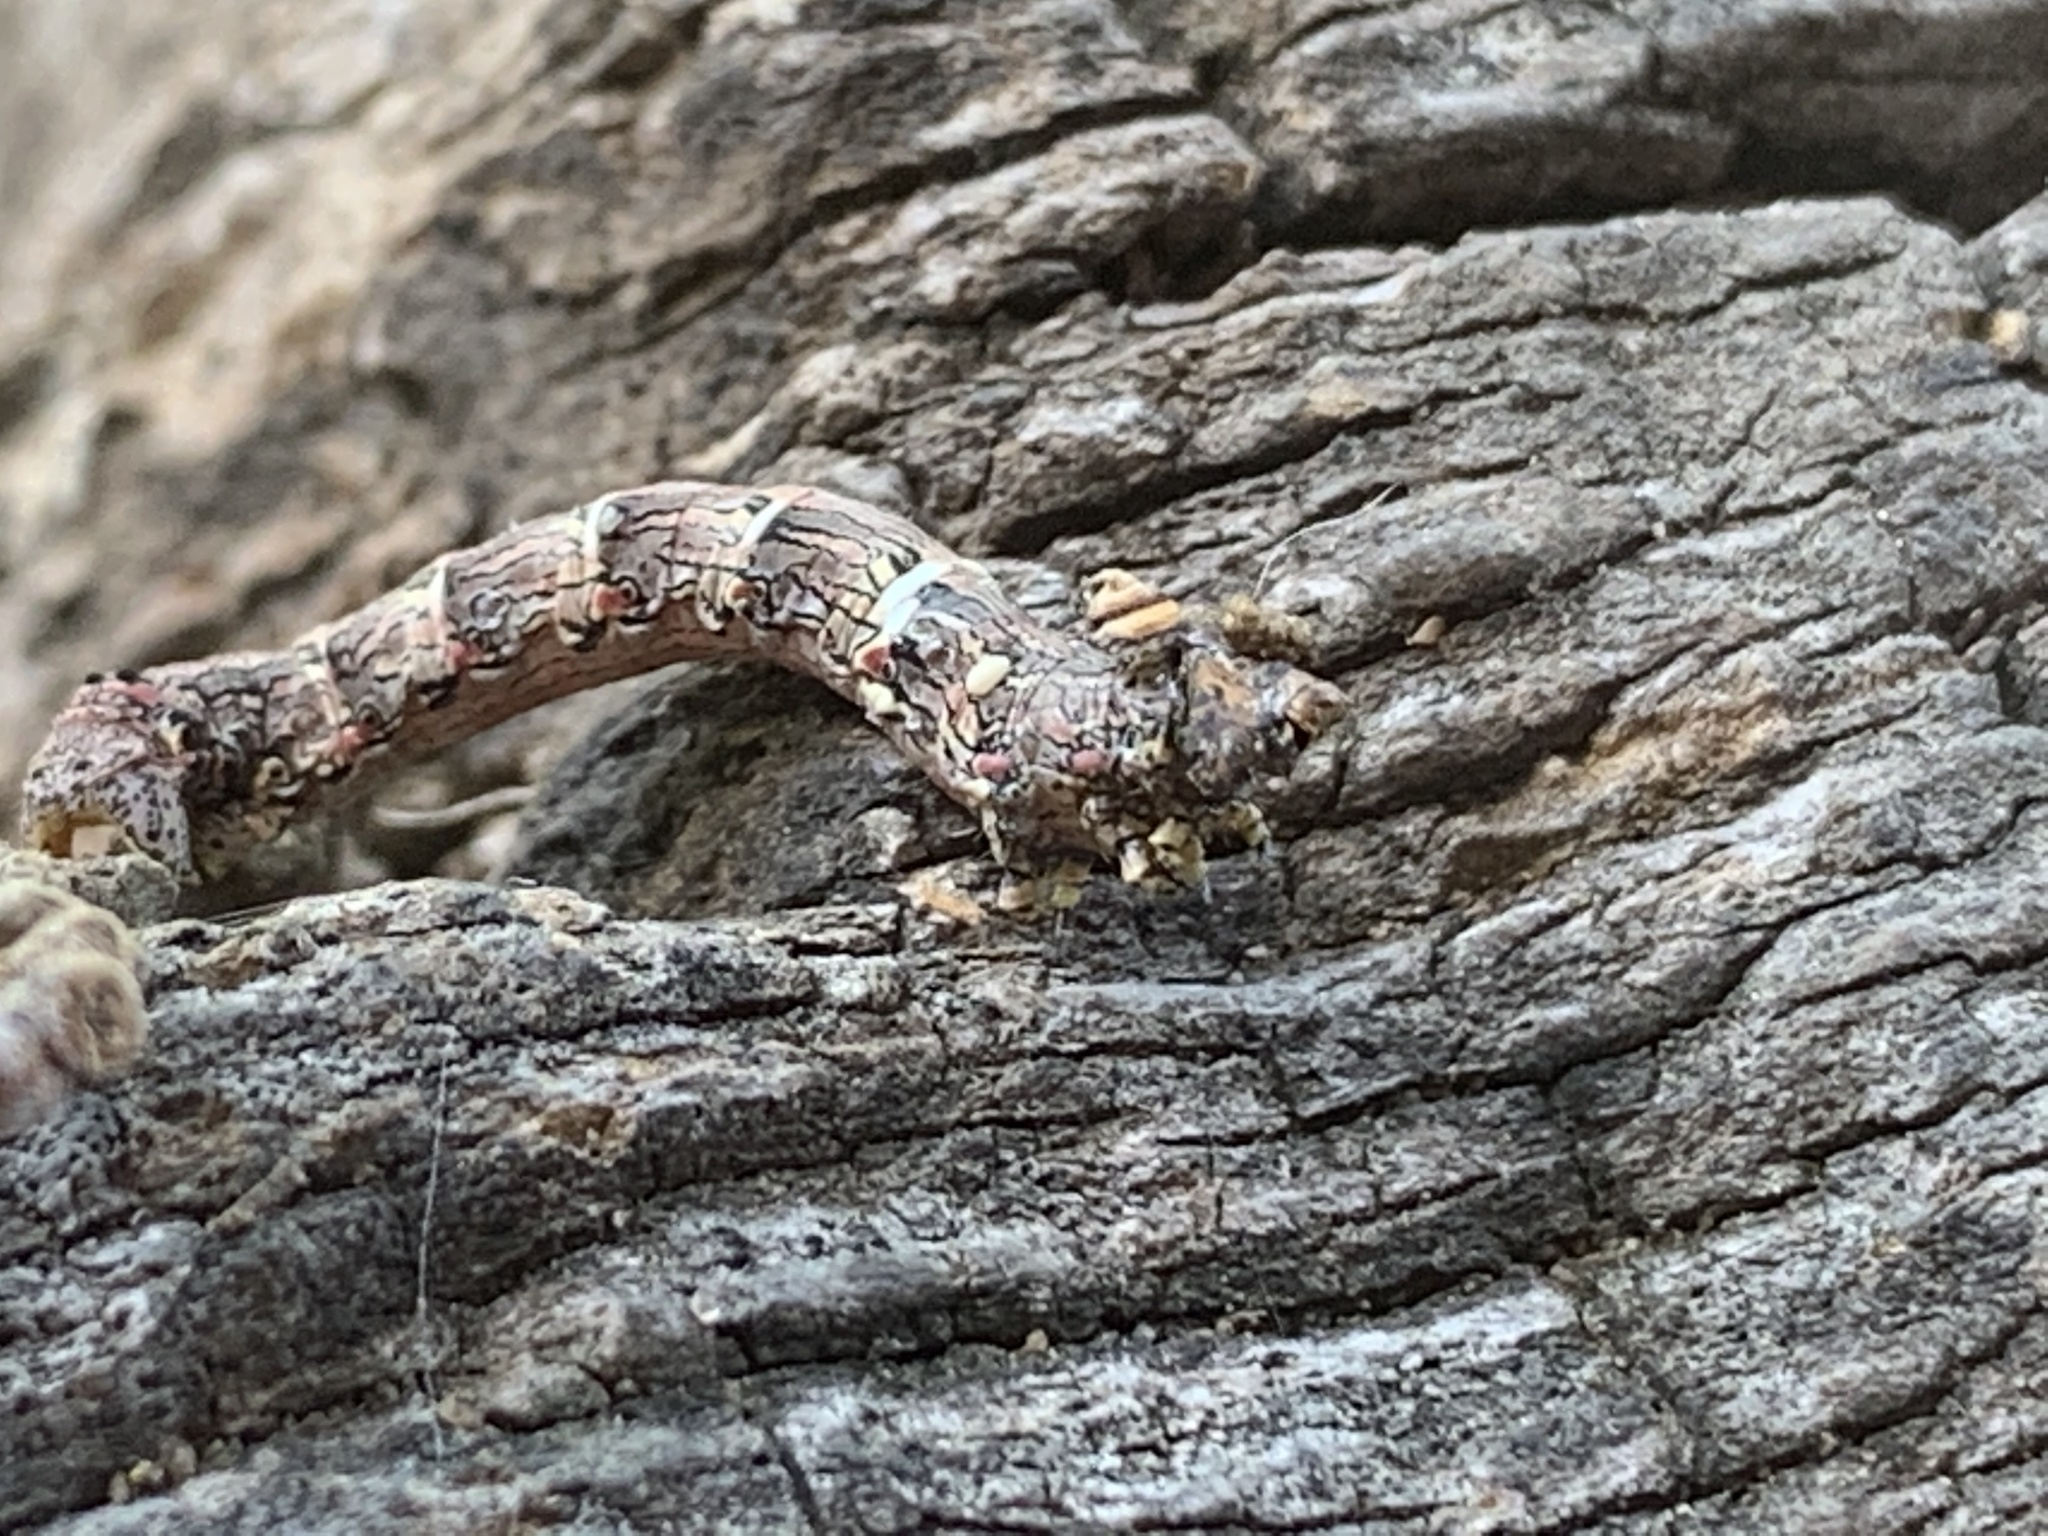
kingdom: Animalia
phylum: Arthropoda
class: Insecta
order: Lepidoptera
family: Geometridae
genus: Lycia
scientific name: Lycia ypsilon
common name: Wooly gray
